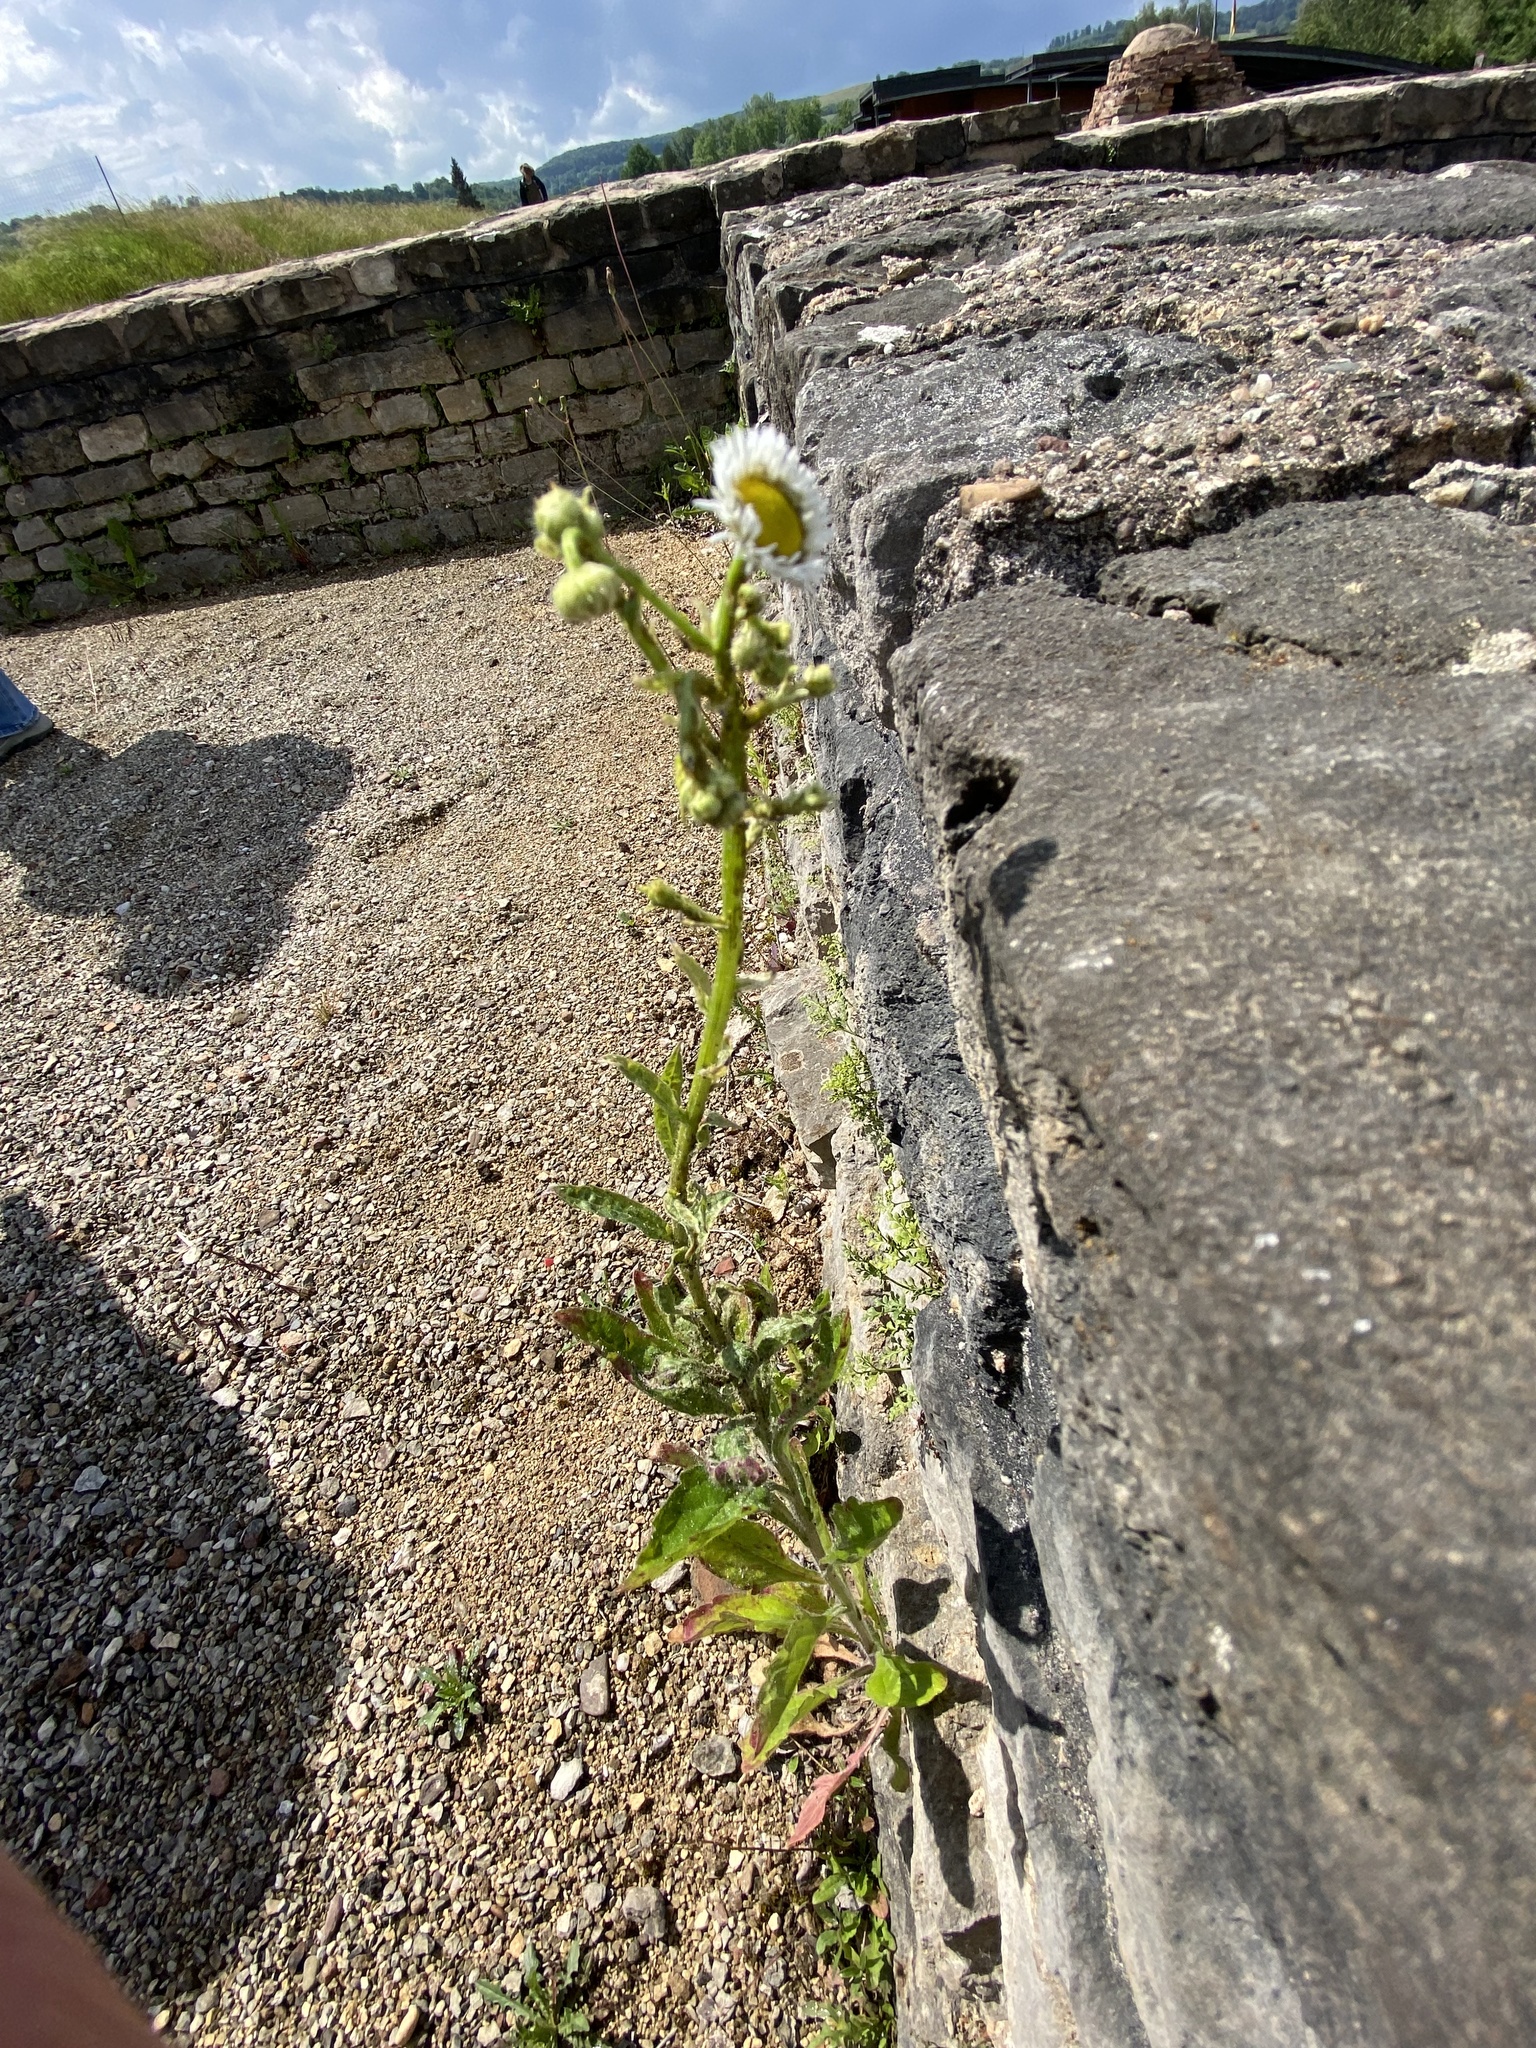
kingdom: Plantae
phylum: Tracheophyta
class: Magnoliopsida
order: Asterales
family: Asteraceae
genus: Erigeron
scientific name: Erigeron annuus
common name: Tall fleabane
